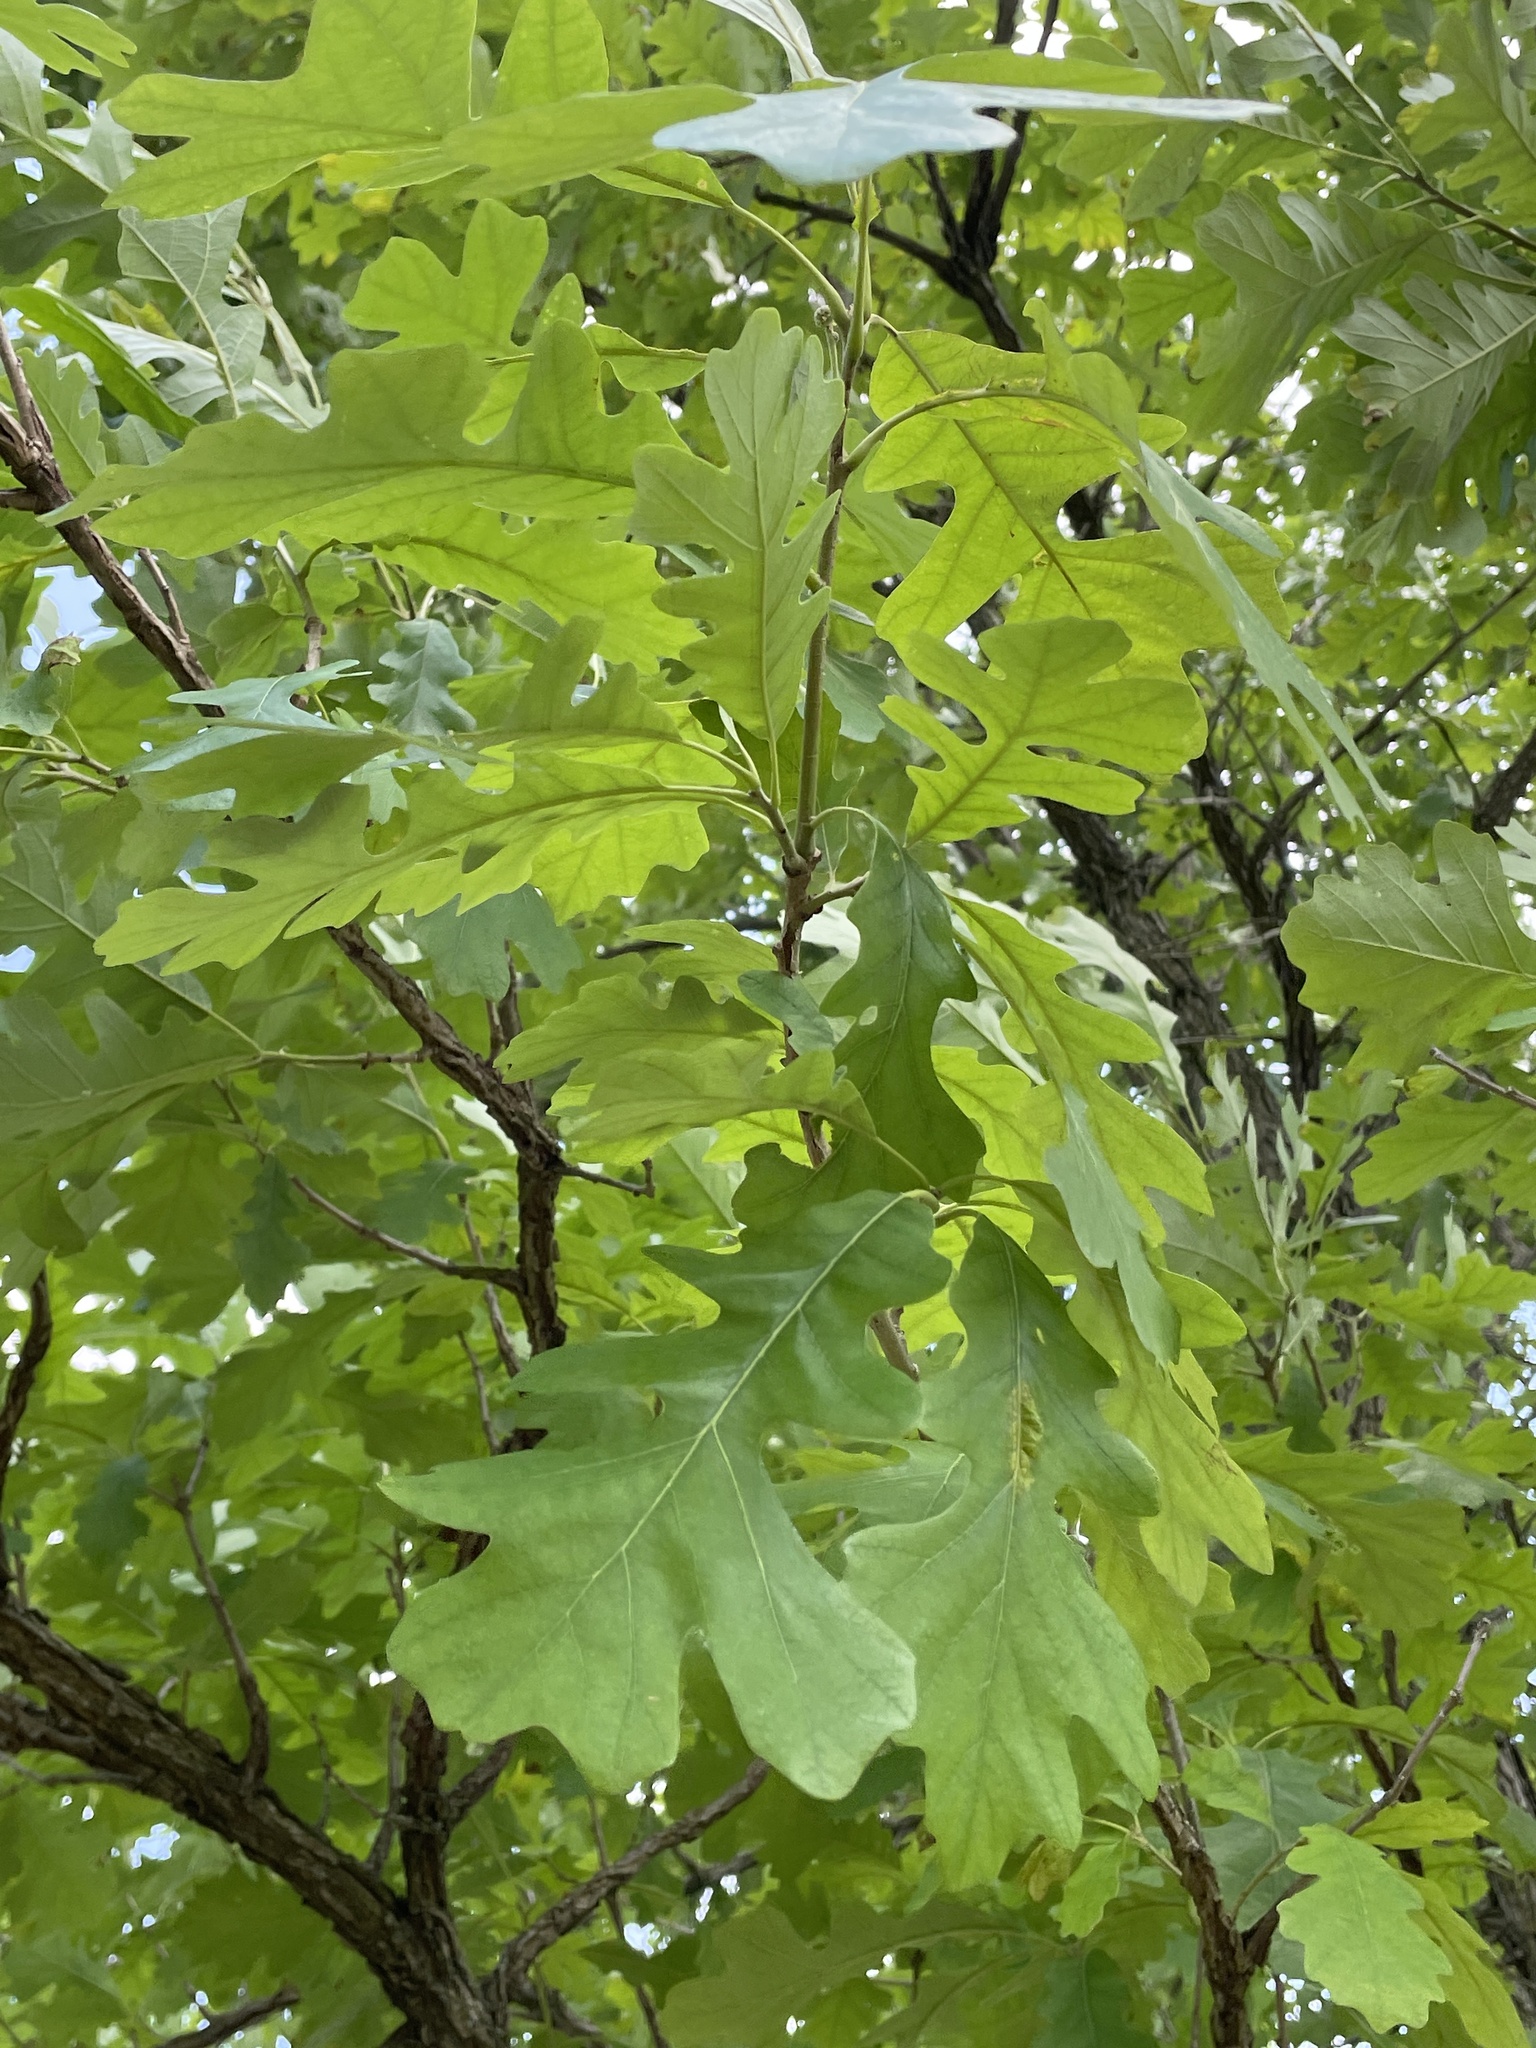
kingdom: Plantae
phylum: Tracheophyta
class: Magnoliopsida
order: Fagales
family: Fagaceae
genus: Quercus
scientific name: Quercus macrocarpa
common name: Bur oak
